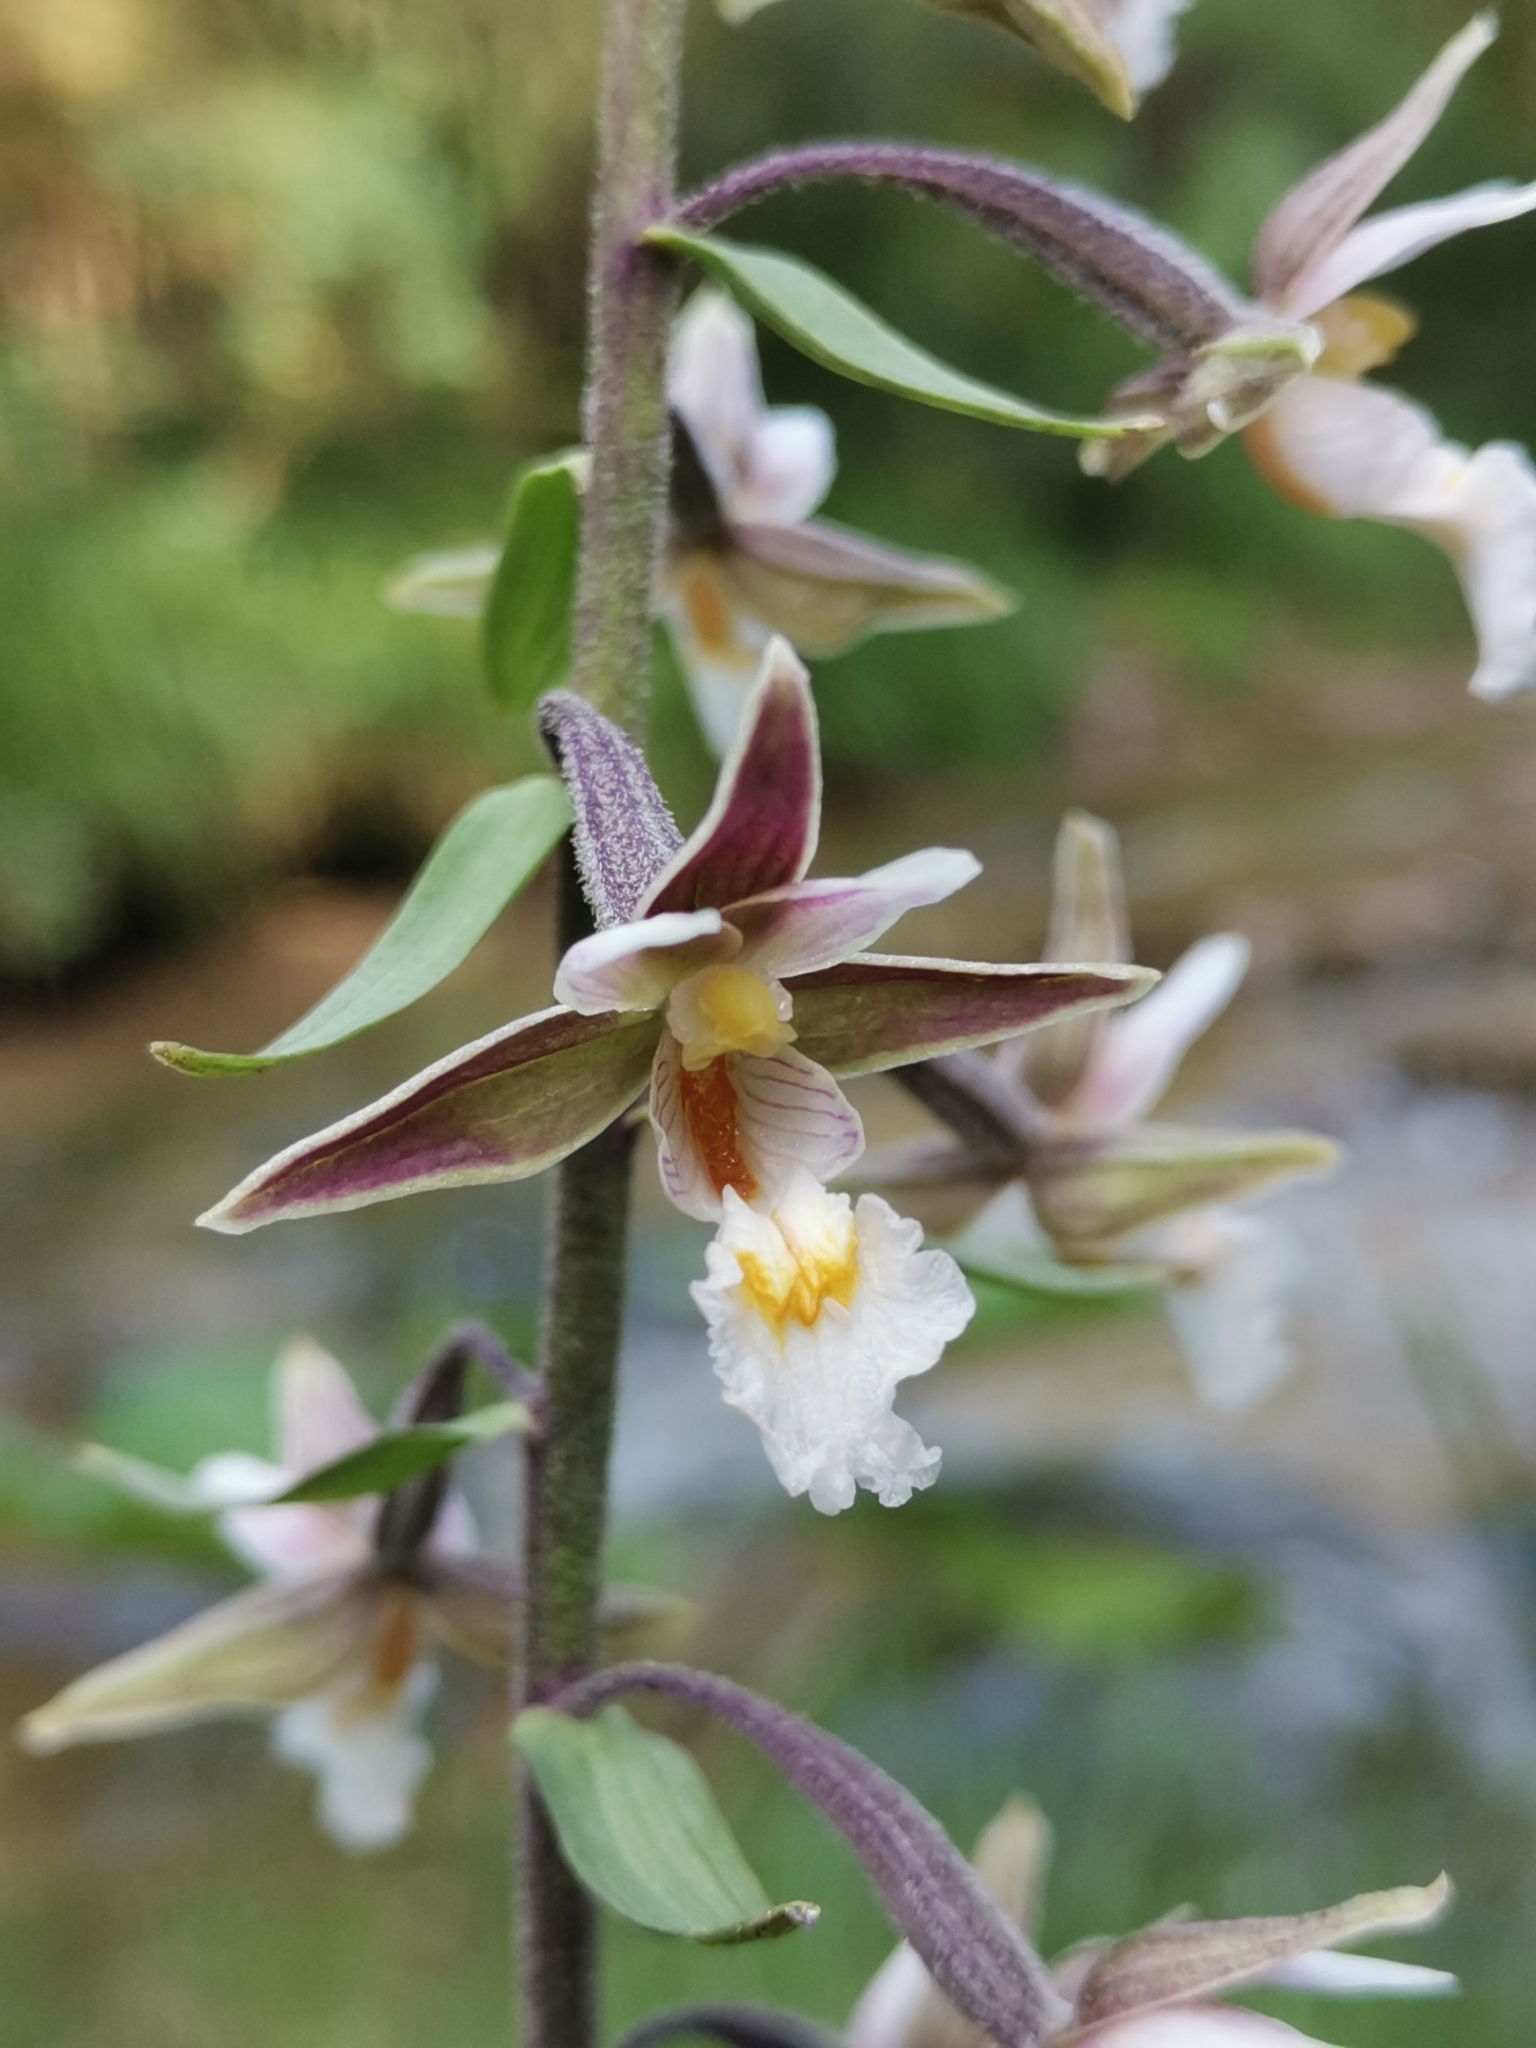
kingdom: Plantae
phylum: Tracheophyta
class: Liliopsida
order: Asparagales
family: Orchidaceae
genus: Epipactis
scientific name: Epipactis palustris
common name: Marsh helleborine
